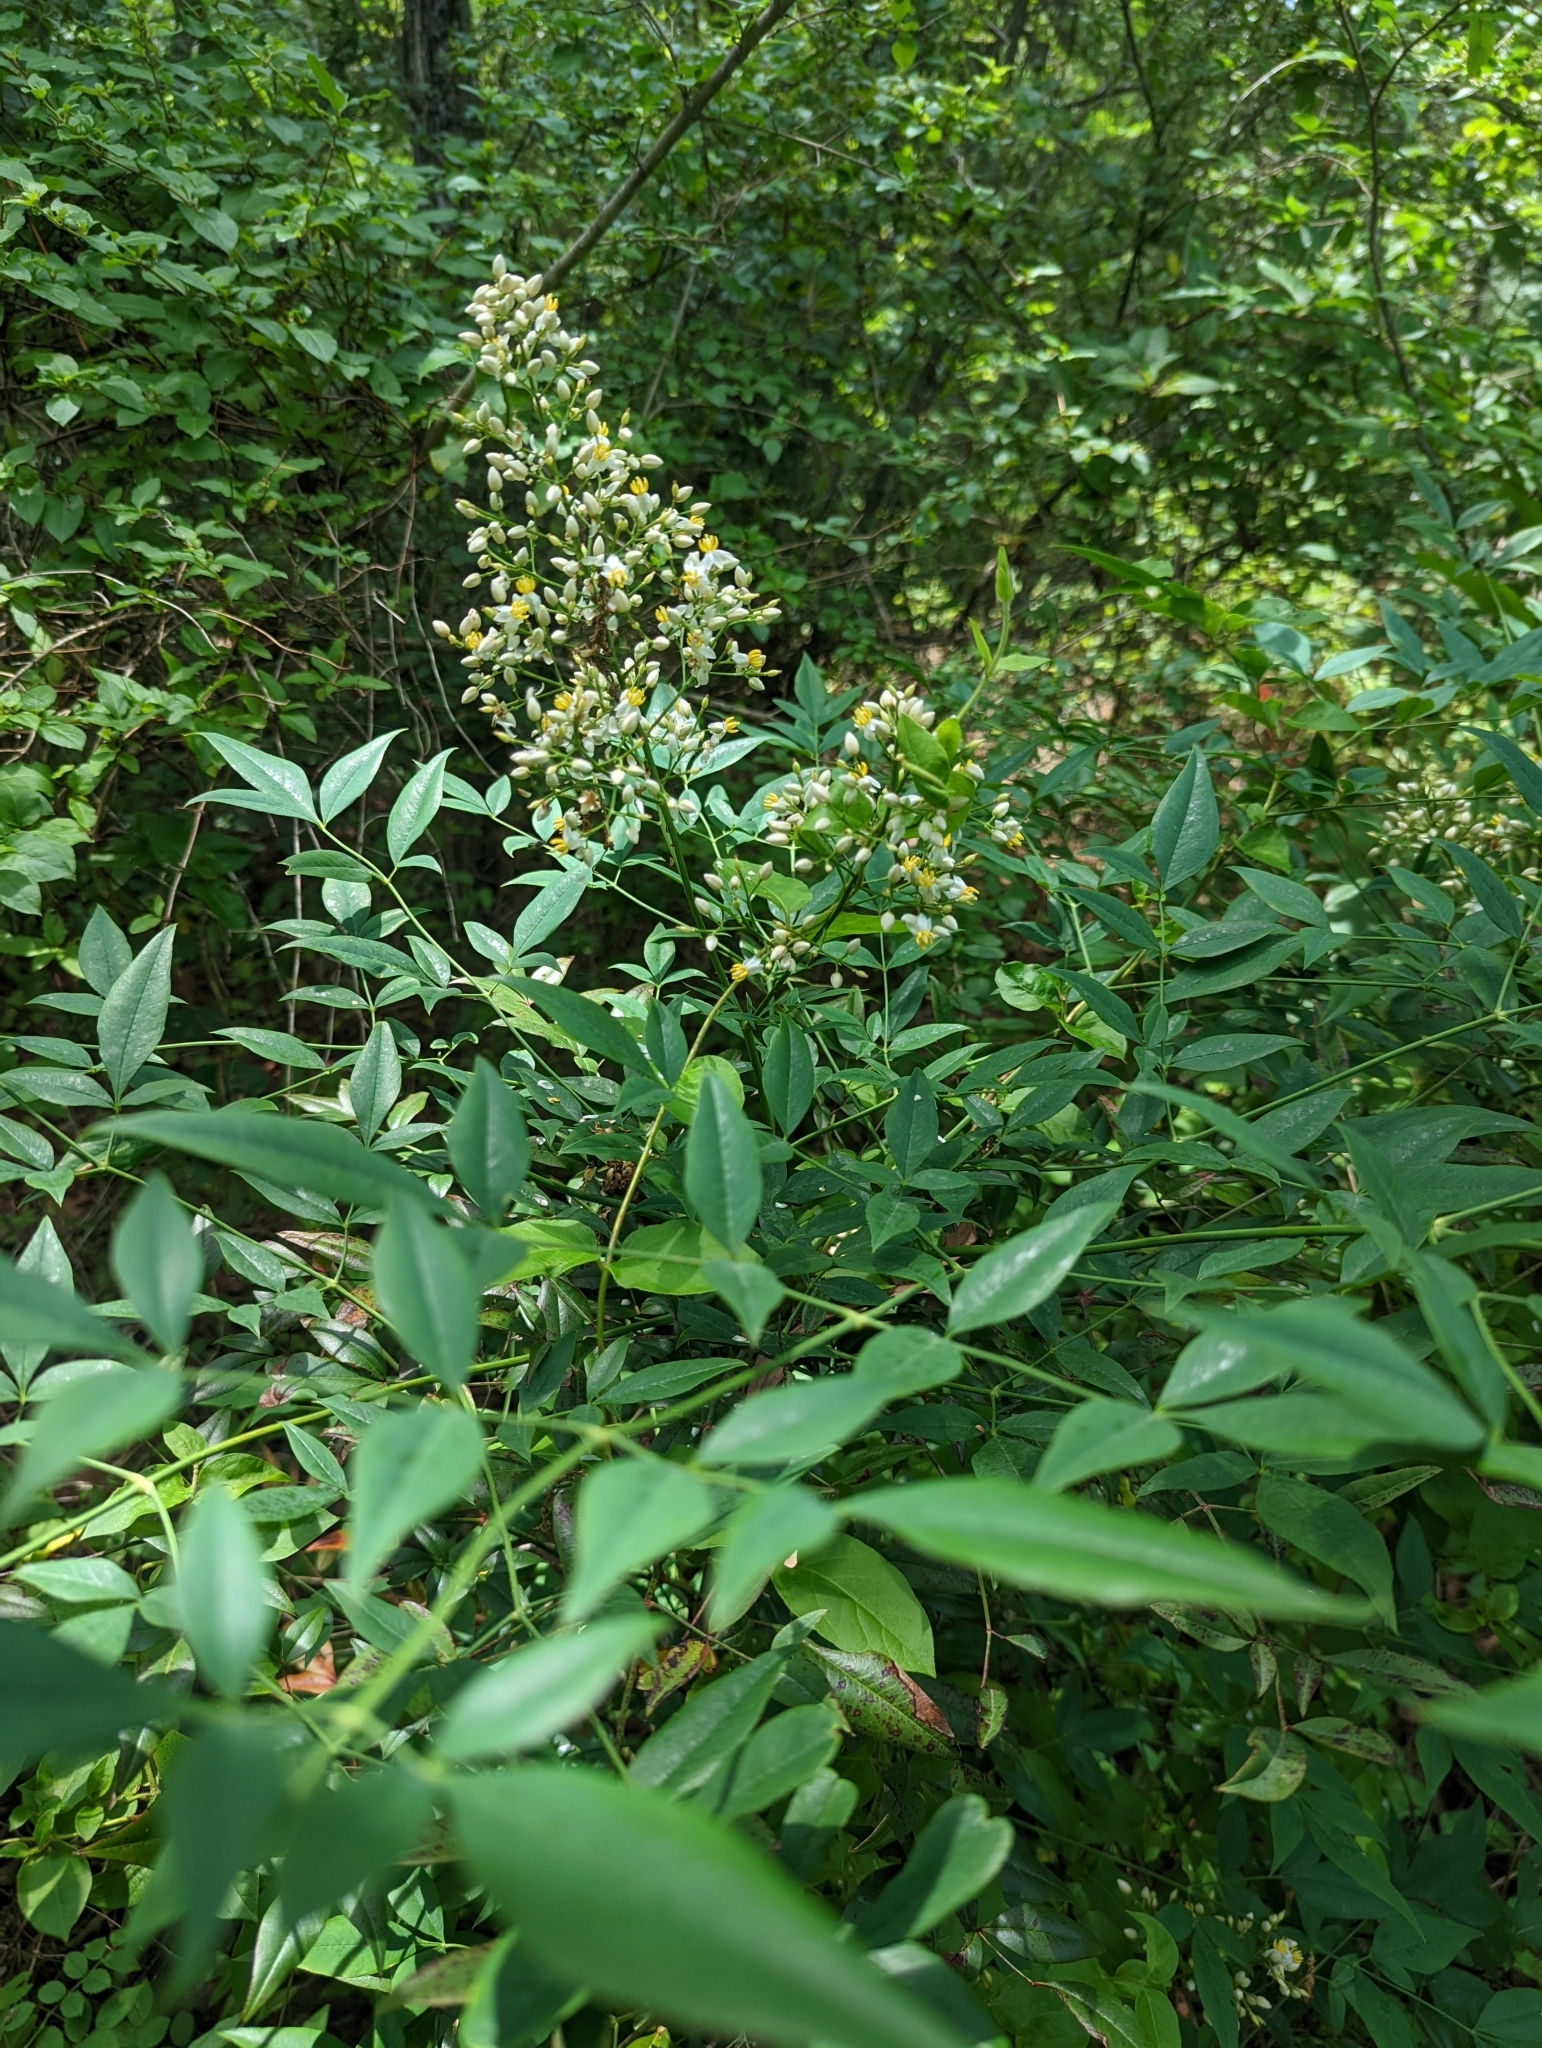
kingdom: Plantae
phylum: Tracheophyta
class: Magnoliopsida
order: Ranunculales
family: Berberidaceae
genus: Nandina
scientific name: Nandina domestica
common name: Sacred bamboo
